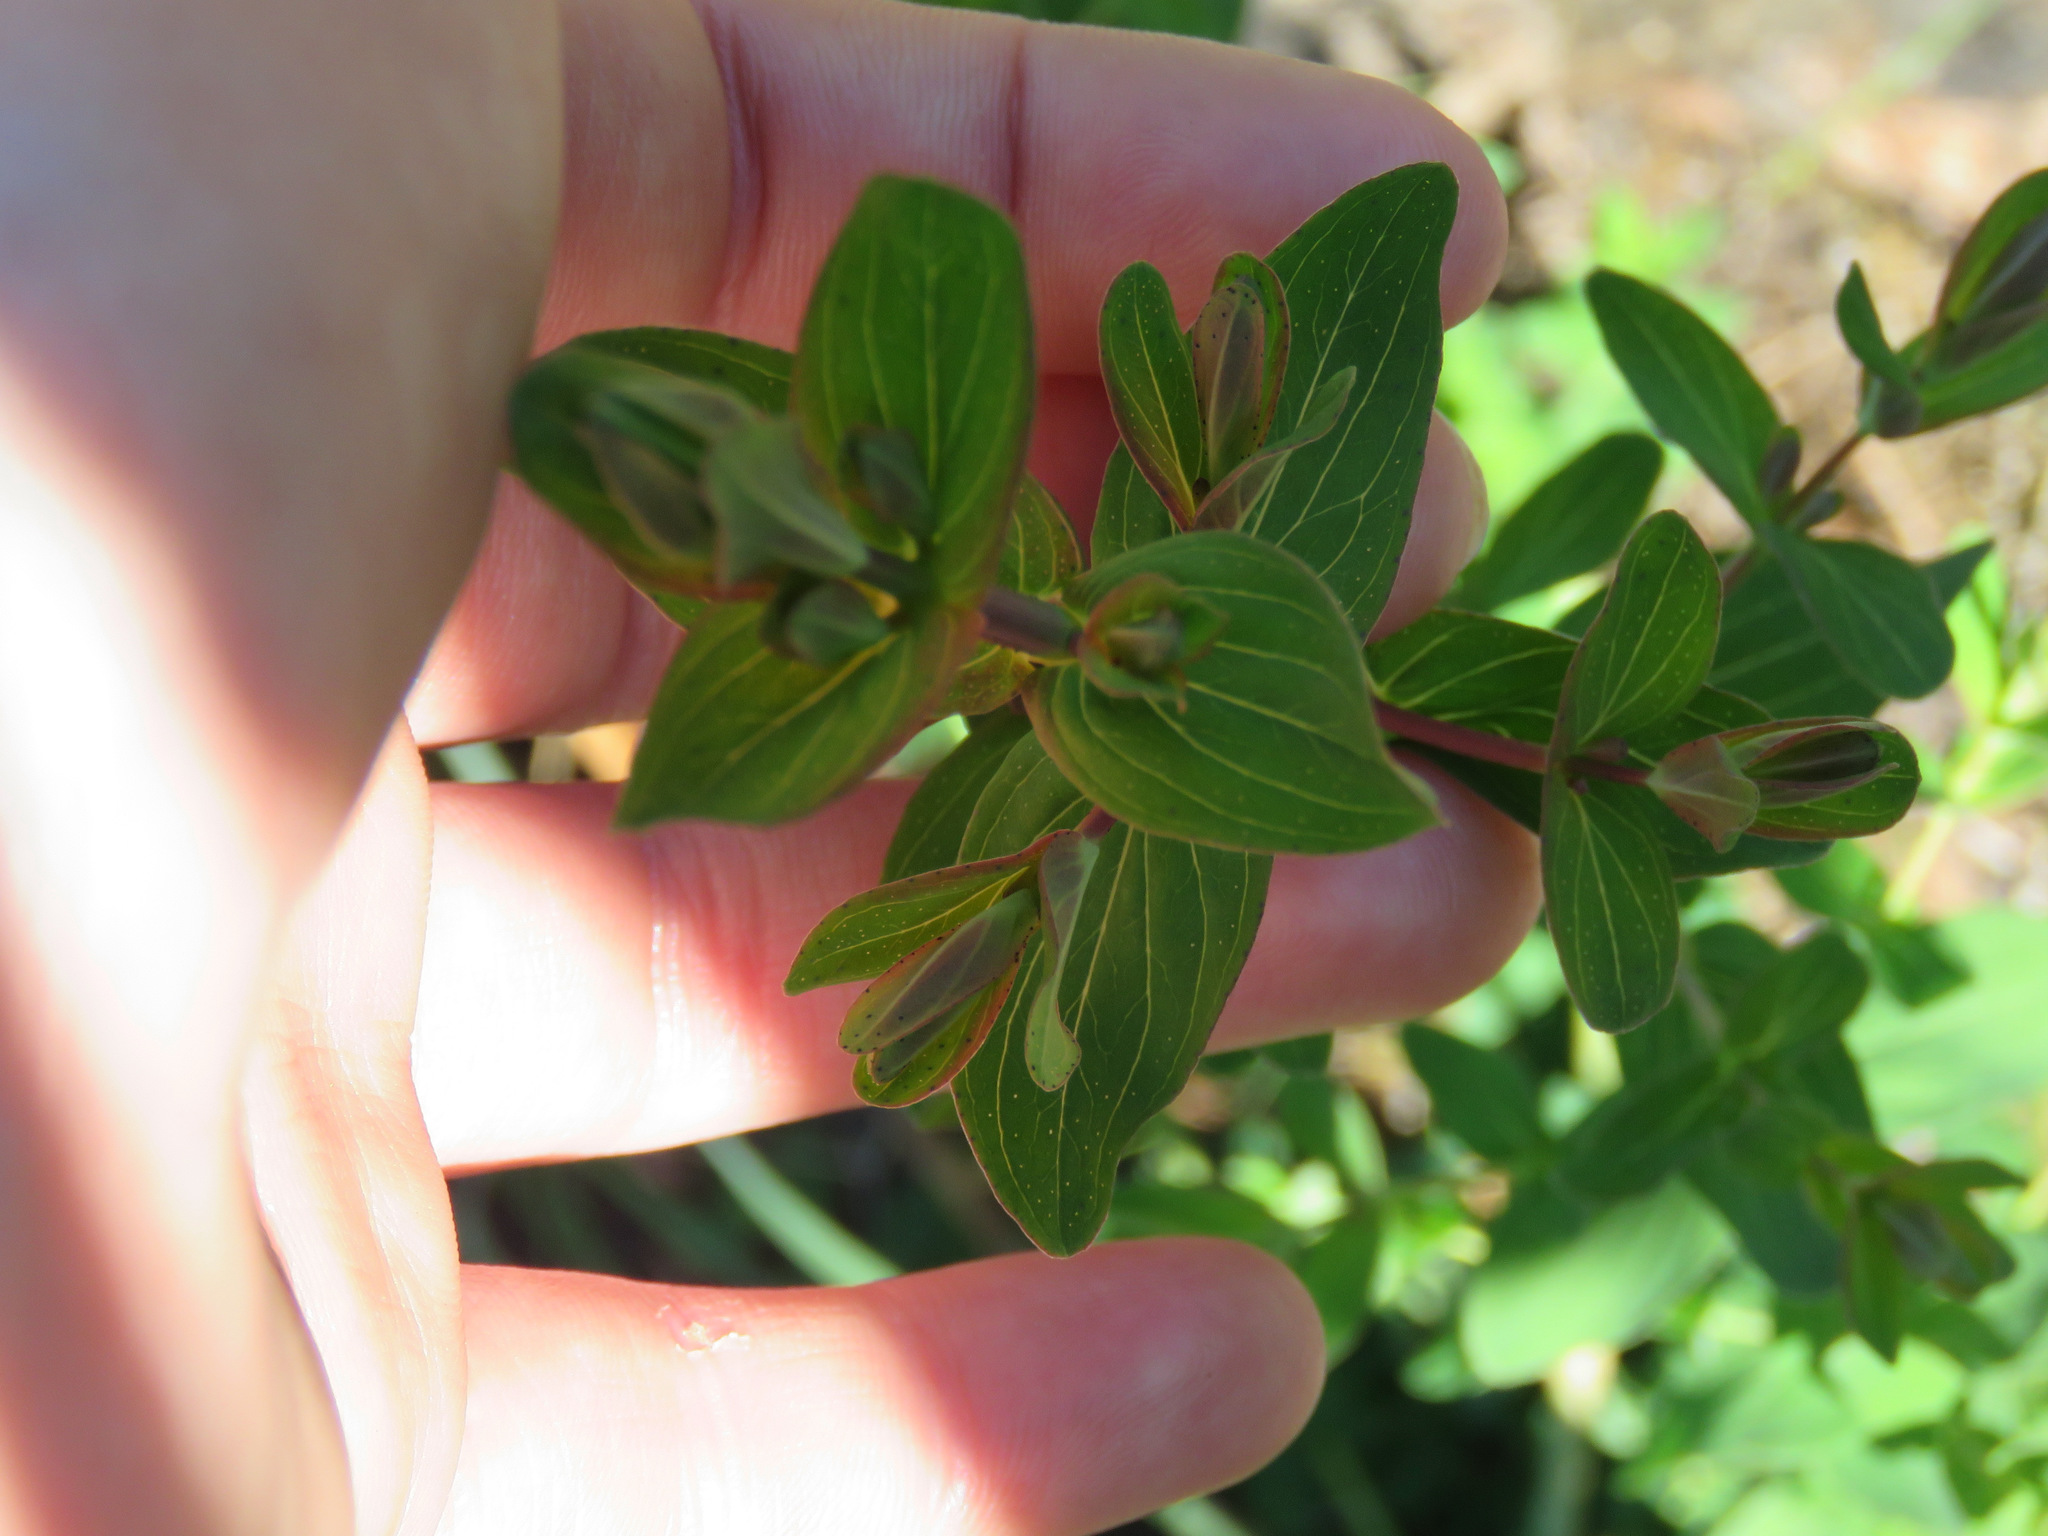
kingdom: Plantae
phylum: Tracheophyta
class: Magnoliopsida
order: Malpighiales
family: Hypericaceae
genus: Hypericum
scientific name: Hypericum perforatum
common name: Common st. johnswort
